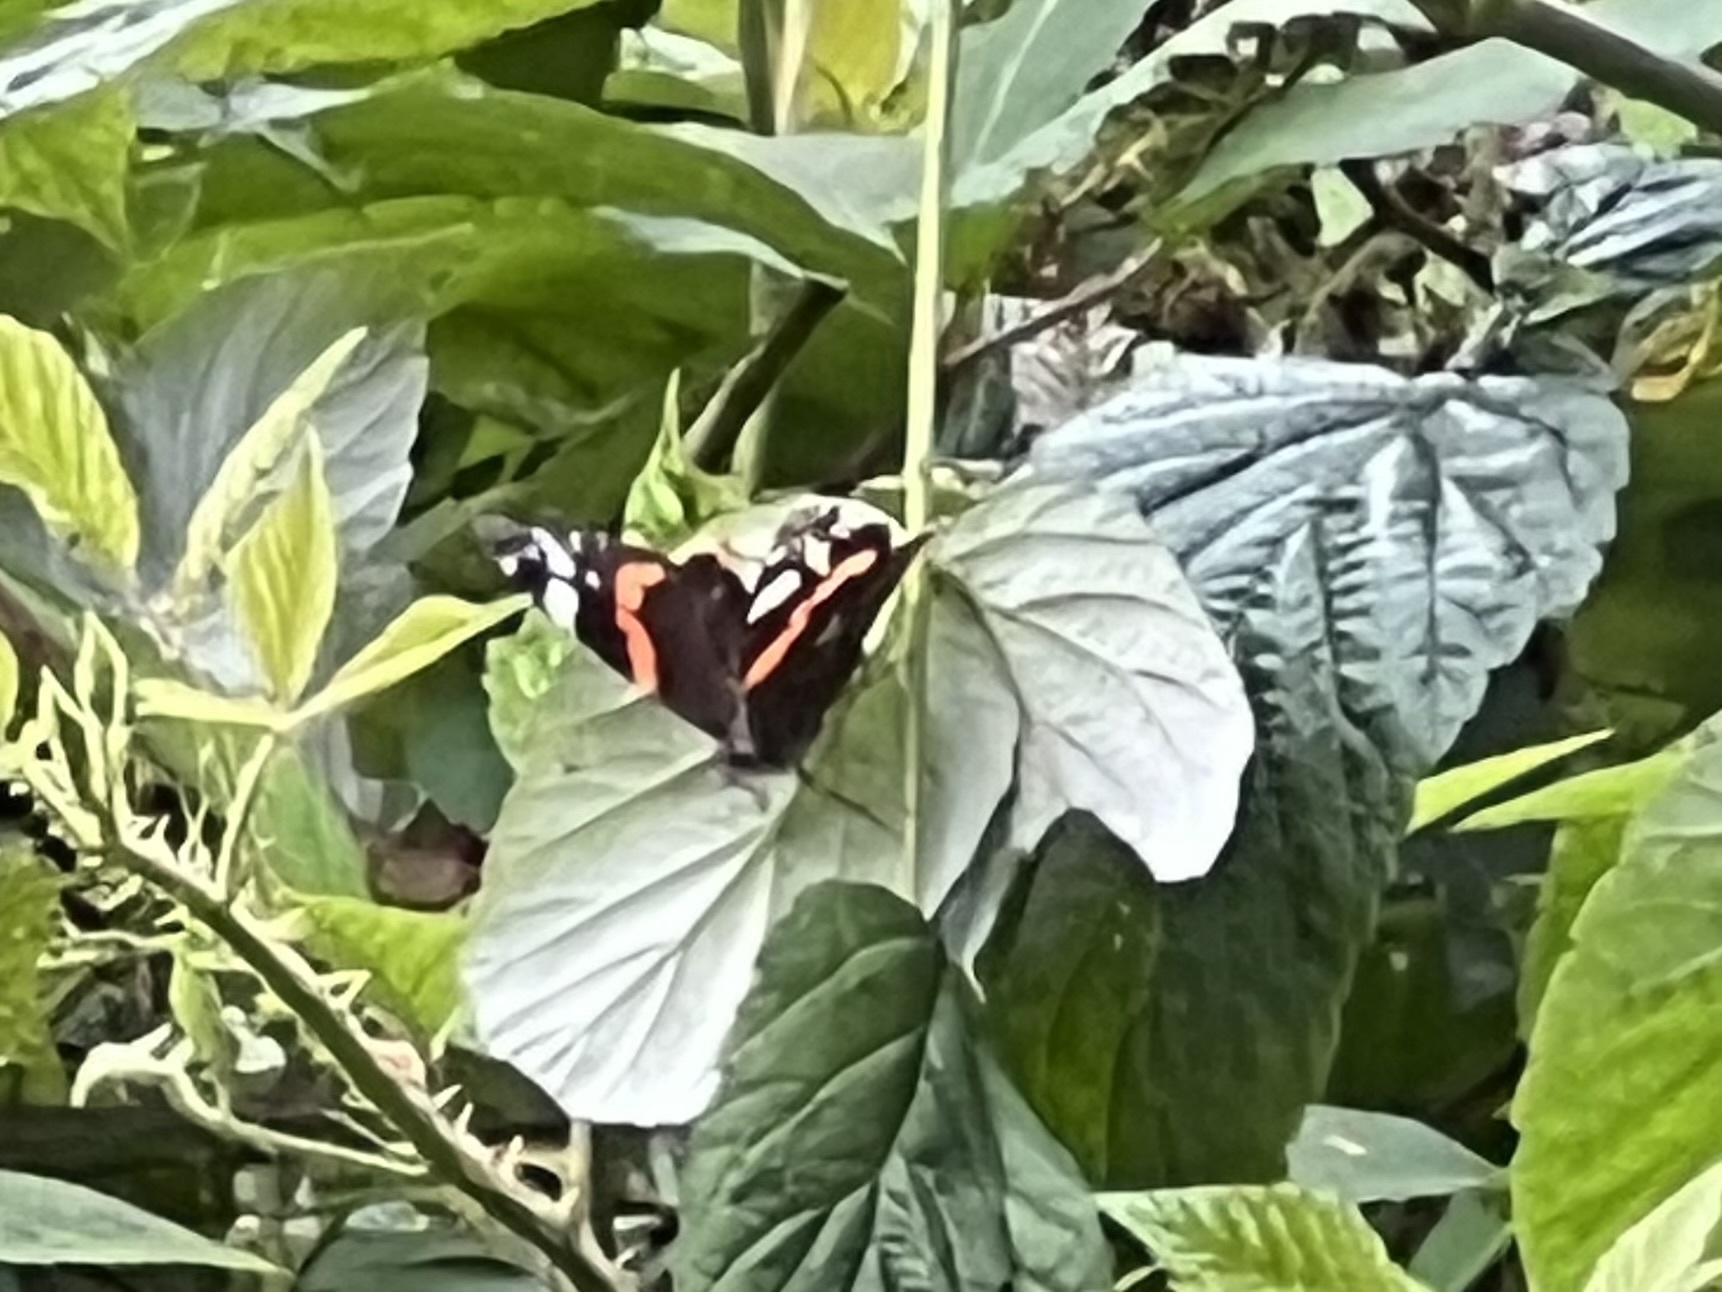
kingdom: Animalia
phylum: Arthropoda
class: Insecta
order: Lepidoptera
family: Nymphalidae
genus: Vanessa
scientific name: Vanessa atalanta
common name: Red admiral
